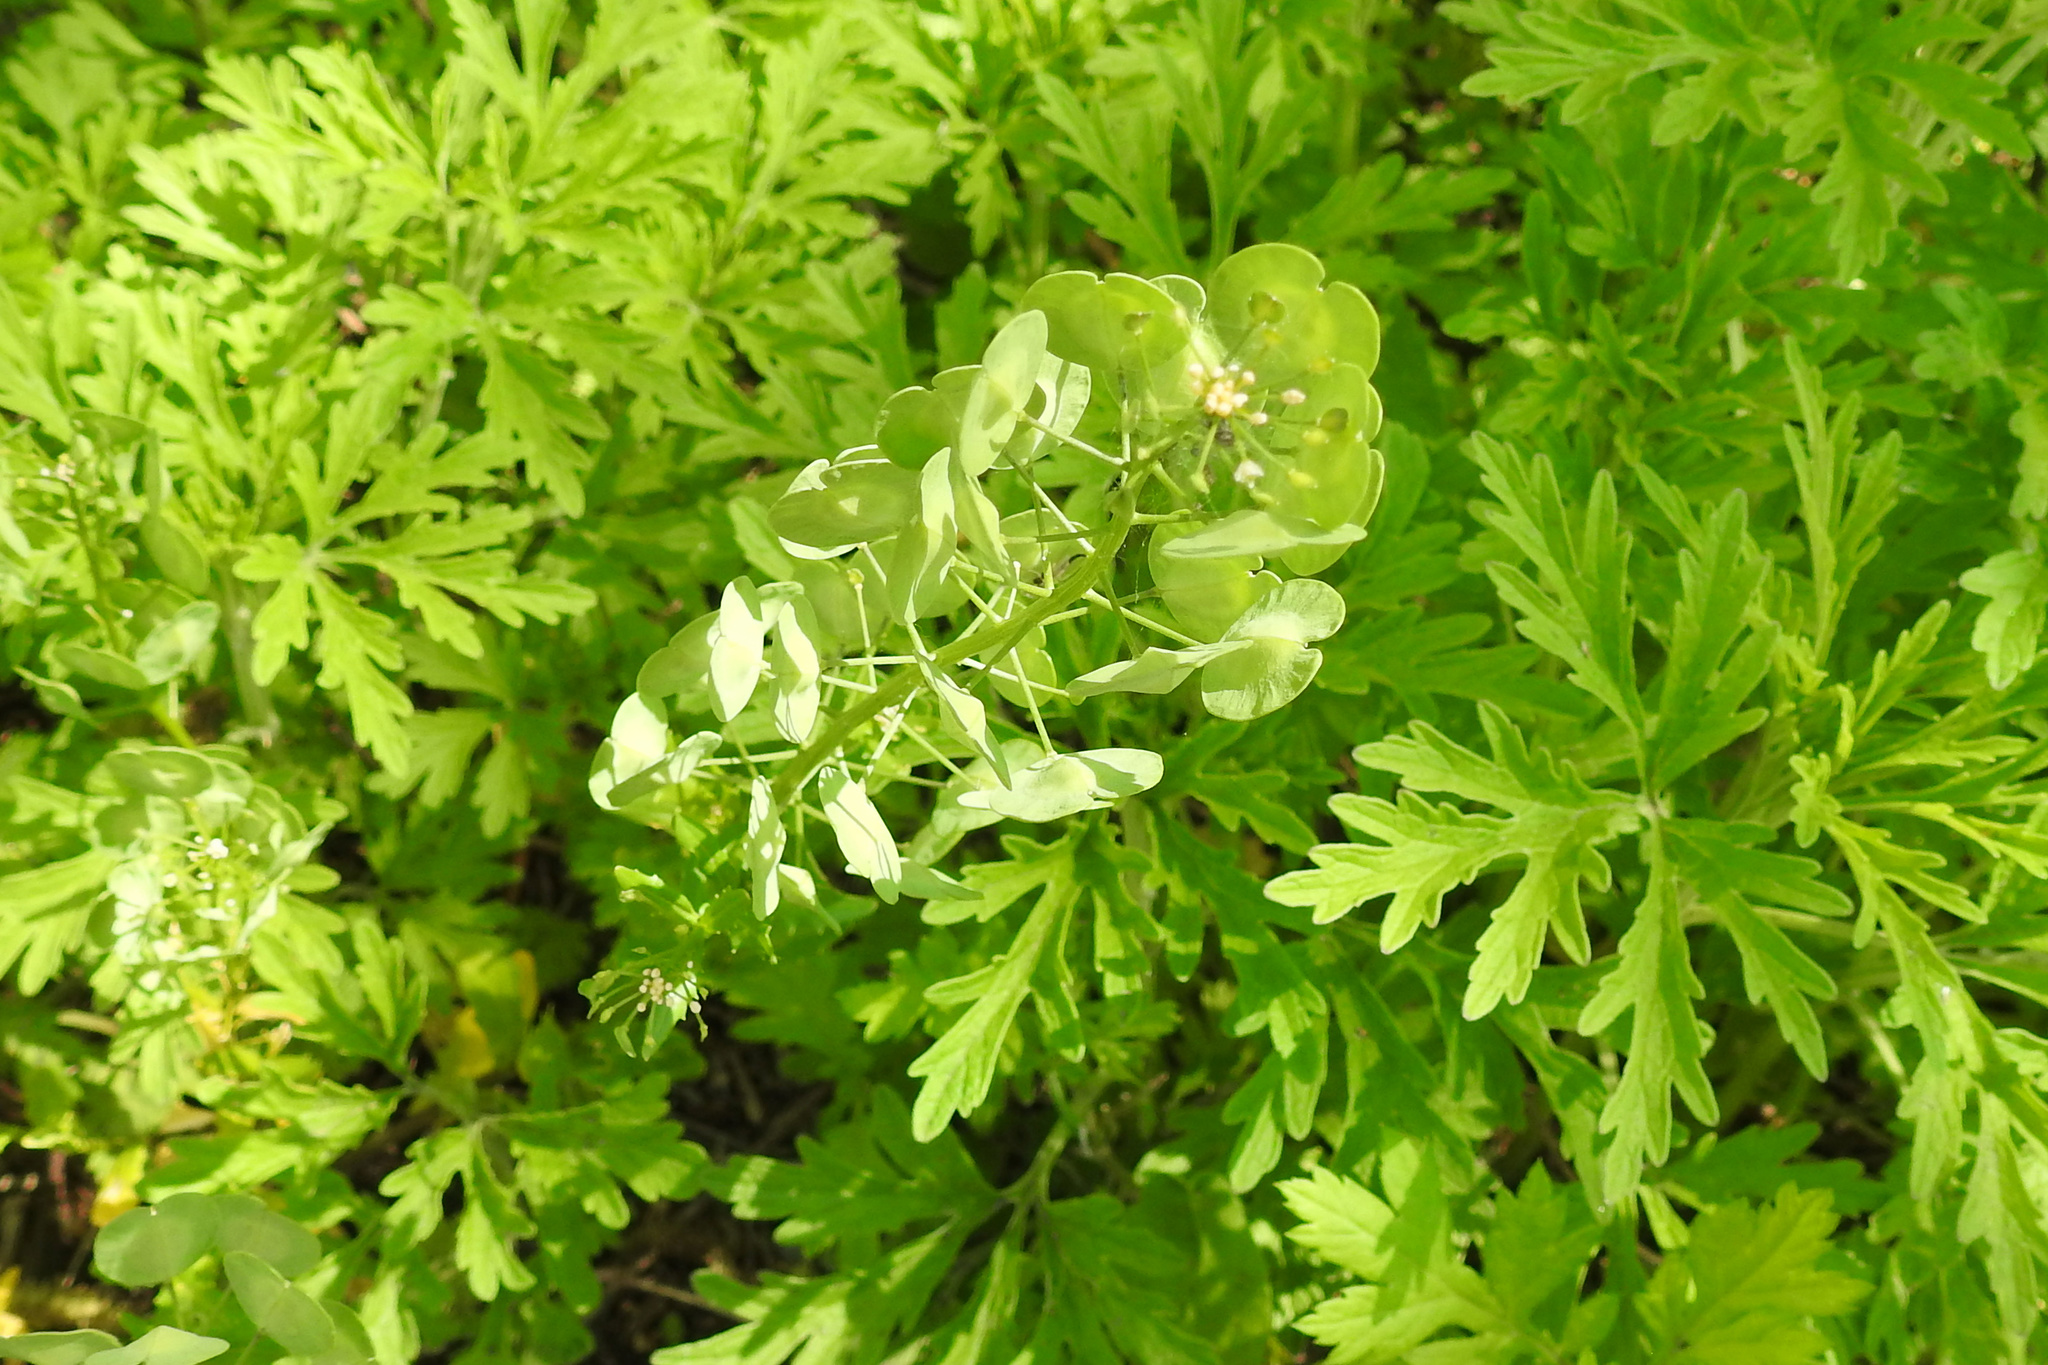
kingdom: Plantae
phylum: Tracheophyta
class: Magnoliopsida
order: Brassicales
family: Brassicaceae
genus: Thlaspi
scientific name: Thlaspi arvense
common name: Field pennycress
